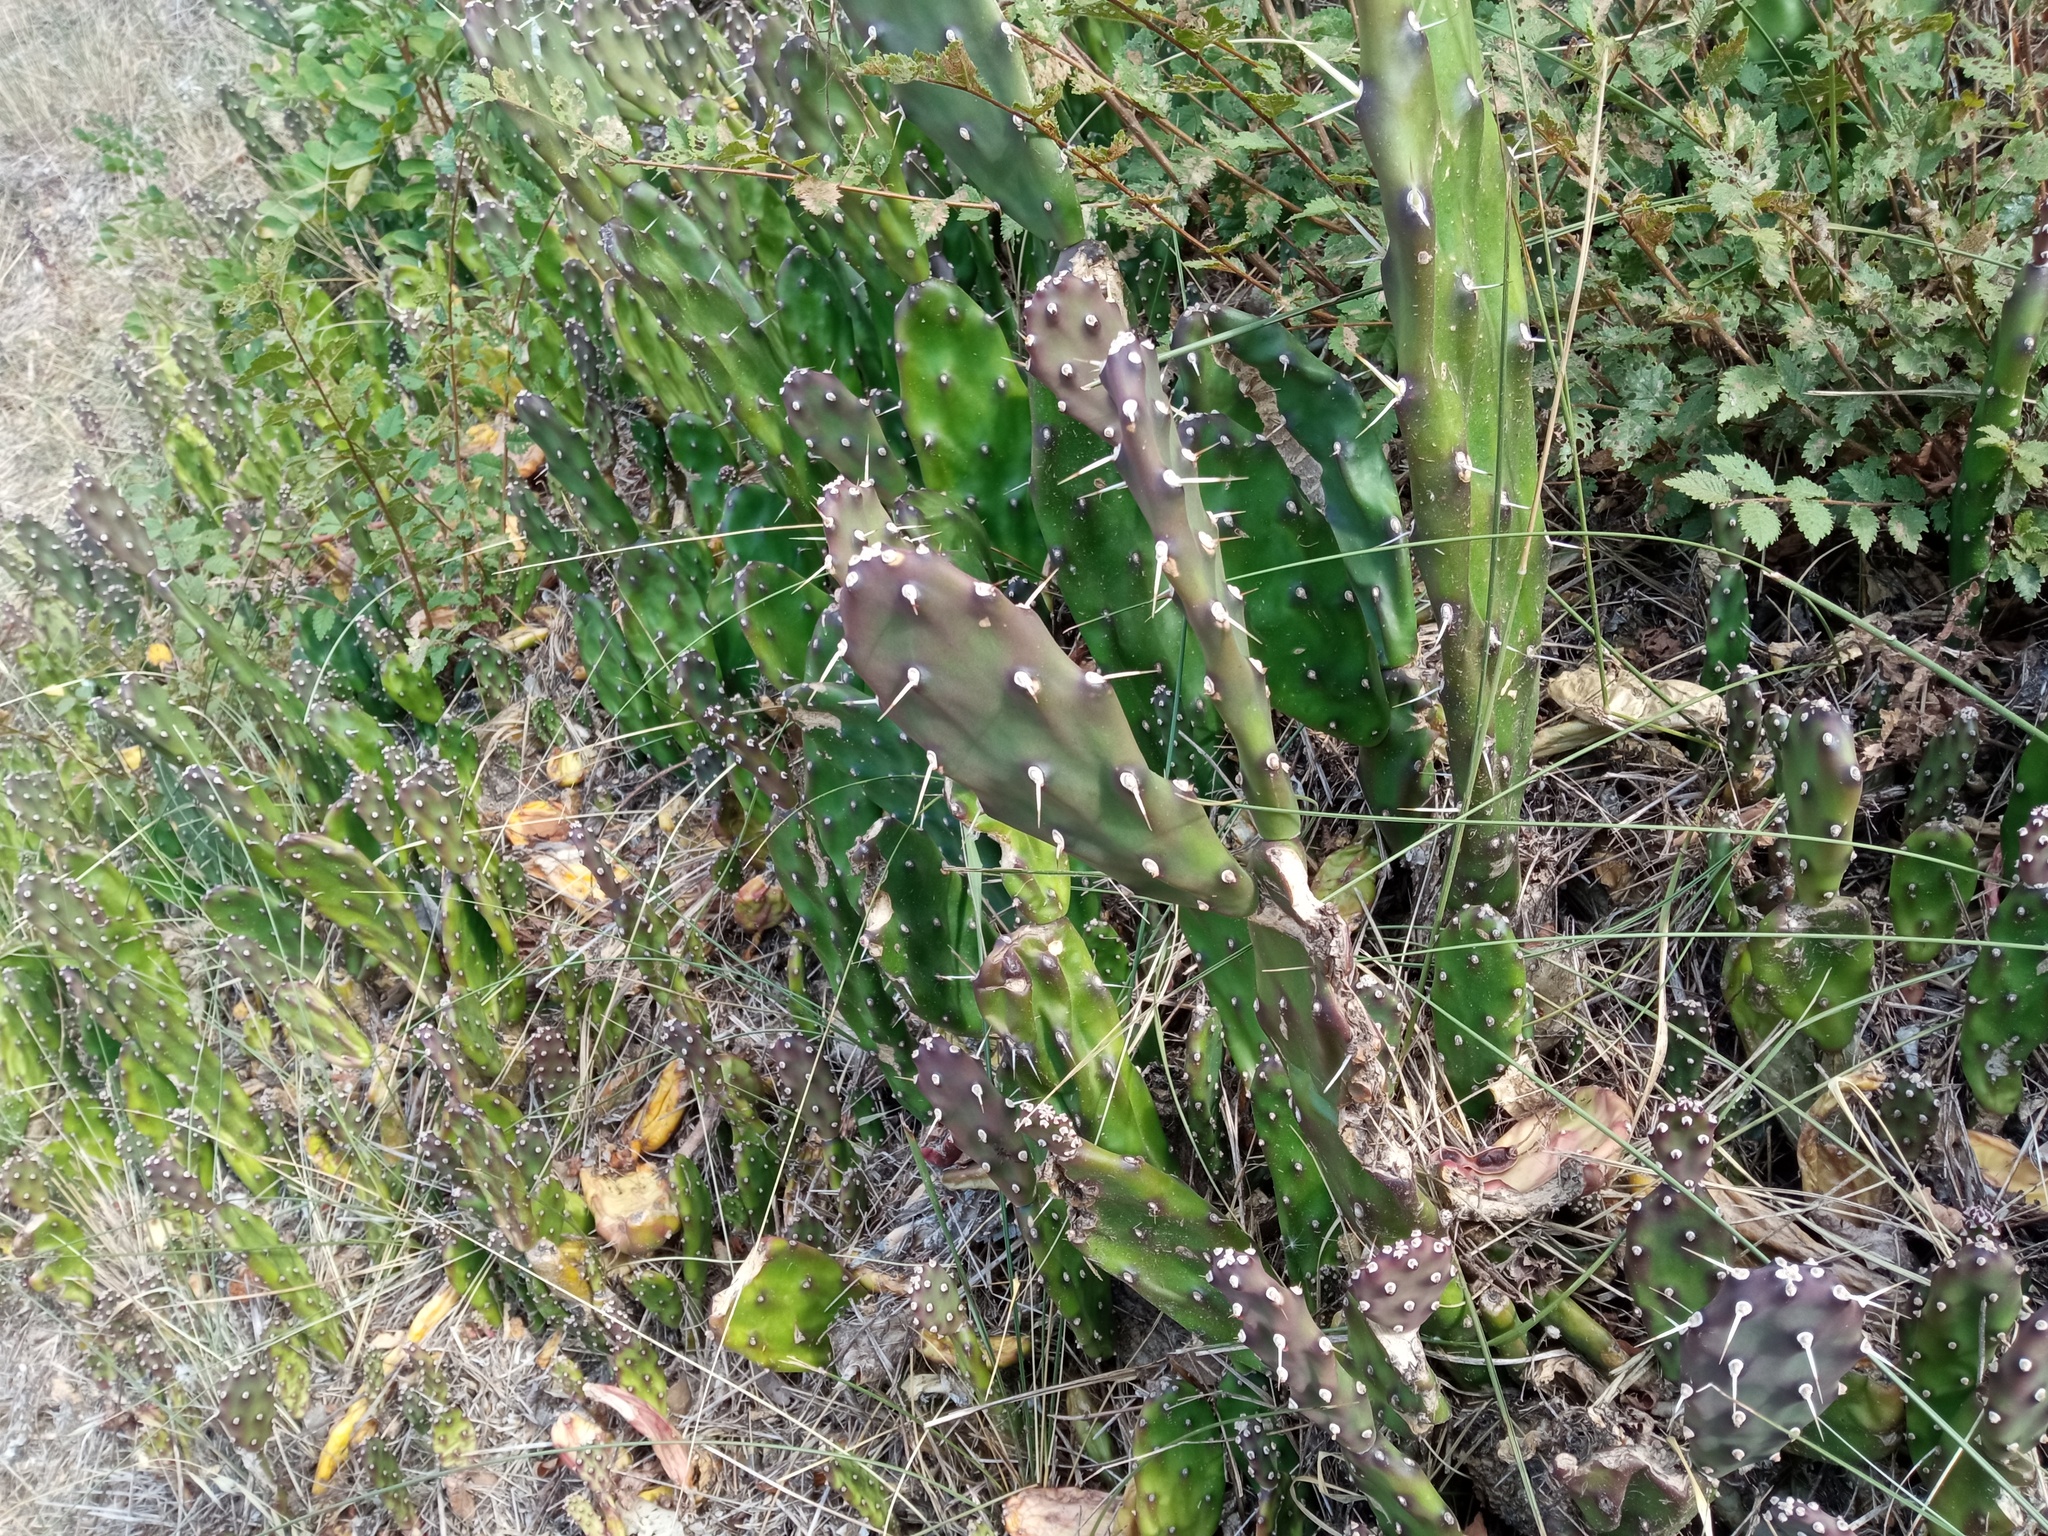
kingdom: Plantae
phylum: Tracheophyta
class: Magnoliopsida
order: Caryophyllales
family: Cactaceae
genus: Opuntia
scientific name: Opuntia elata
